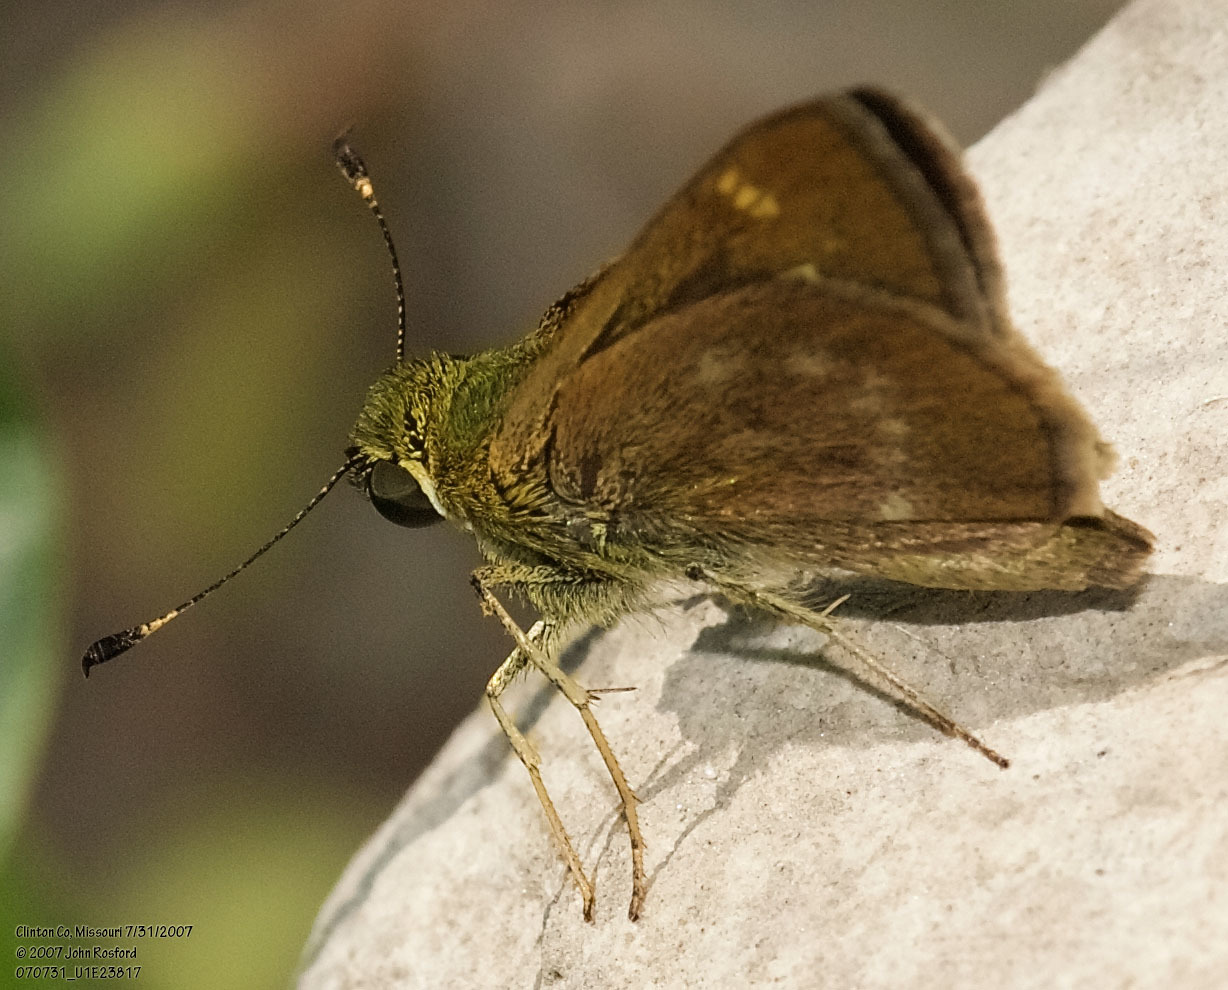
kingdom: Animalia
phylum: Arthropoda
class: Insecta
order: Lepidoptera
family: Hesperiidae
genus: Vernia
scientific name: Vernia verna
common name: Little glassywing
